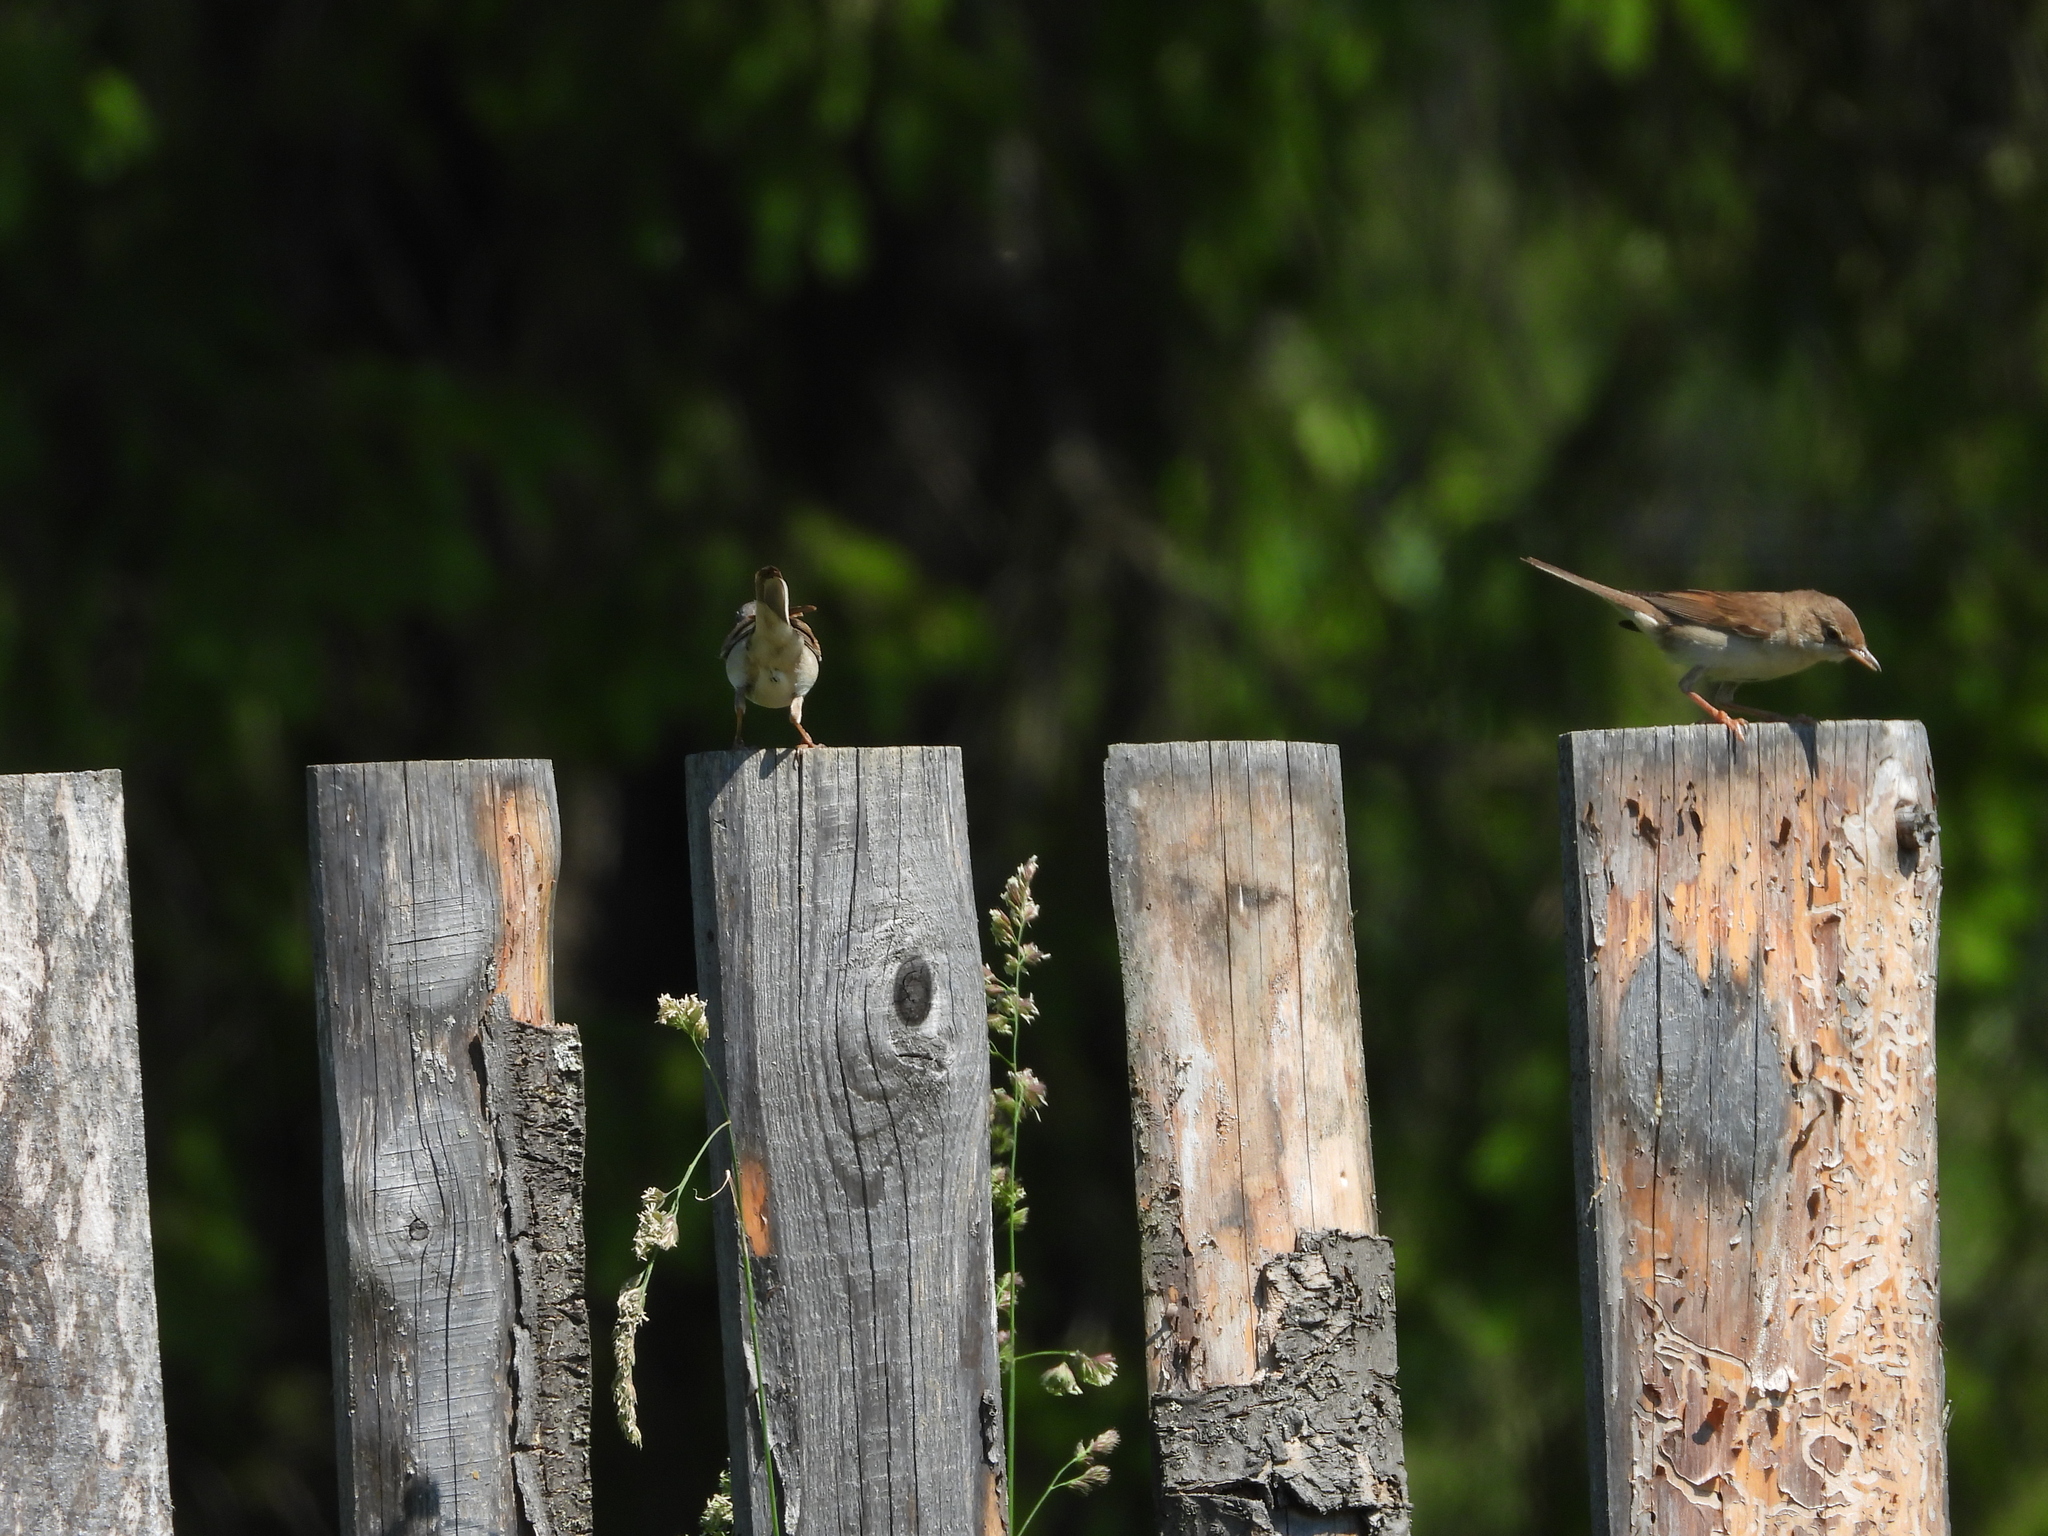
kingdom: Animalia
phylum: Chordata
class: Aves
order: Passeriformes
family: Sylviidae
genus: Sylvia
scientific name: Sylvia communis
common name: Common whitethroat
